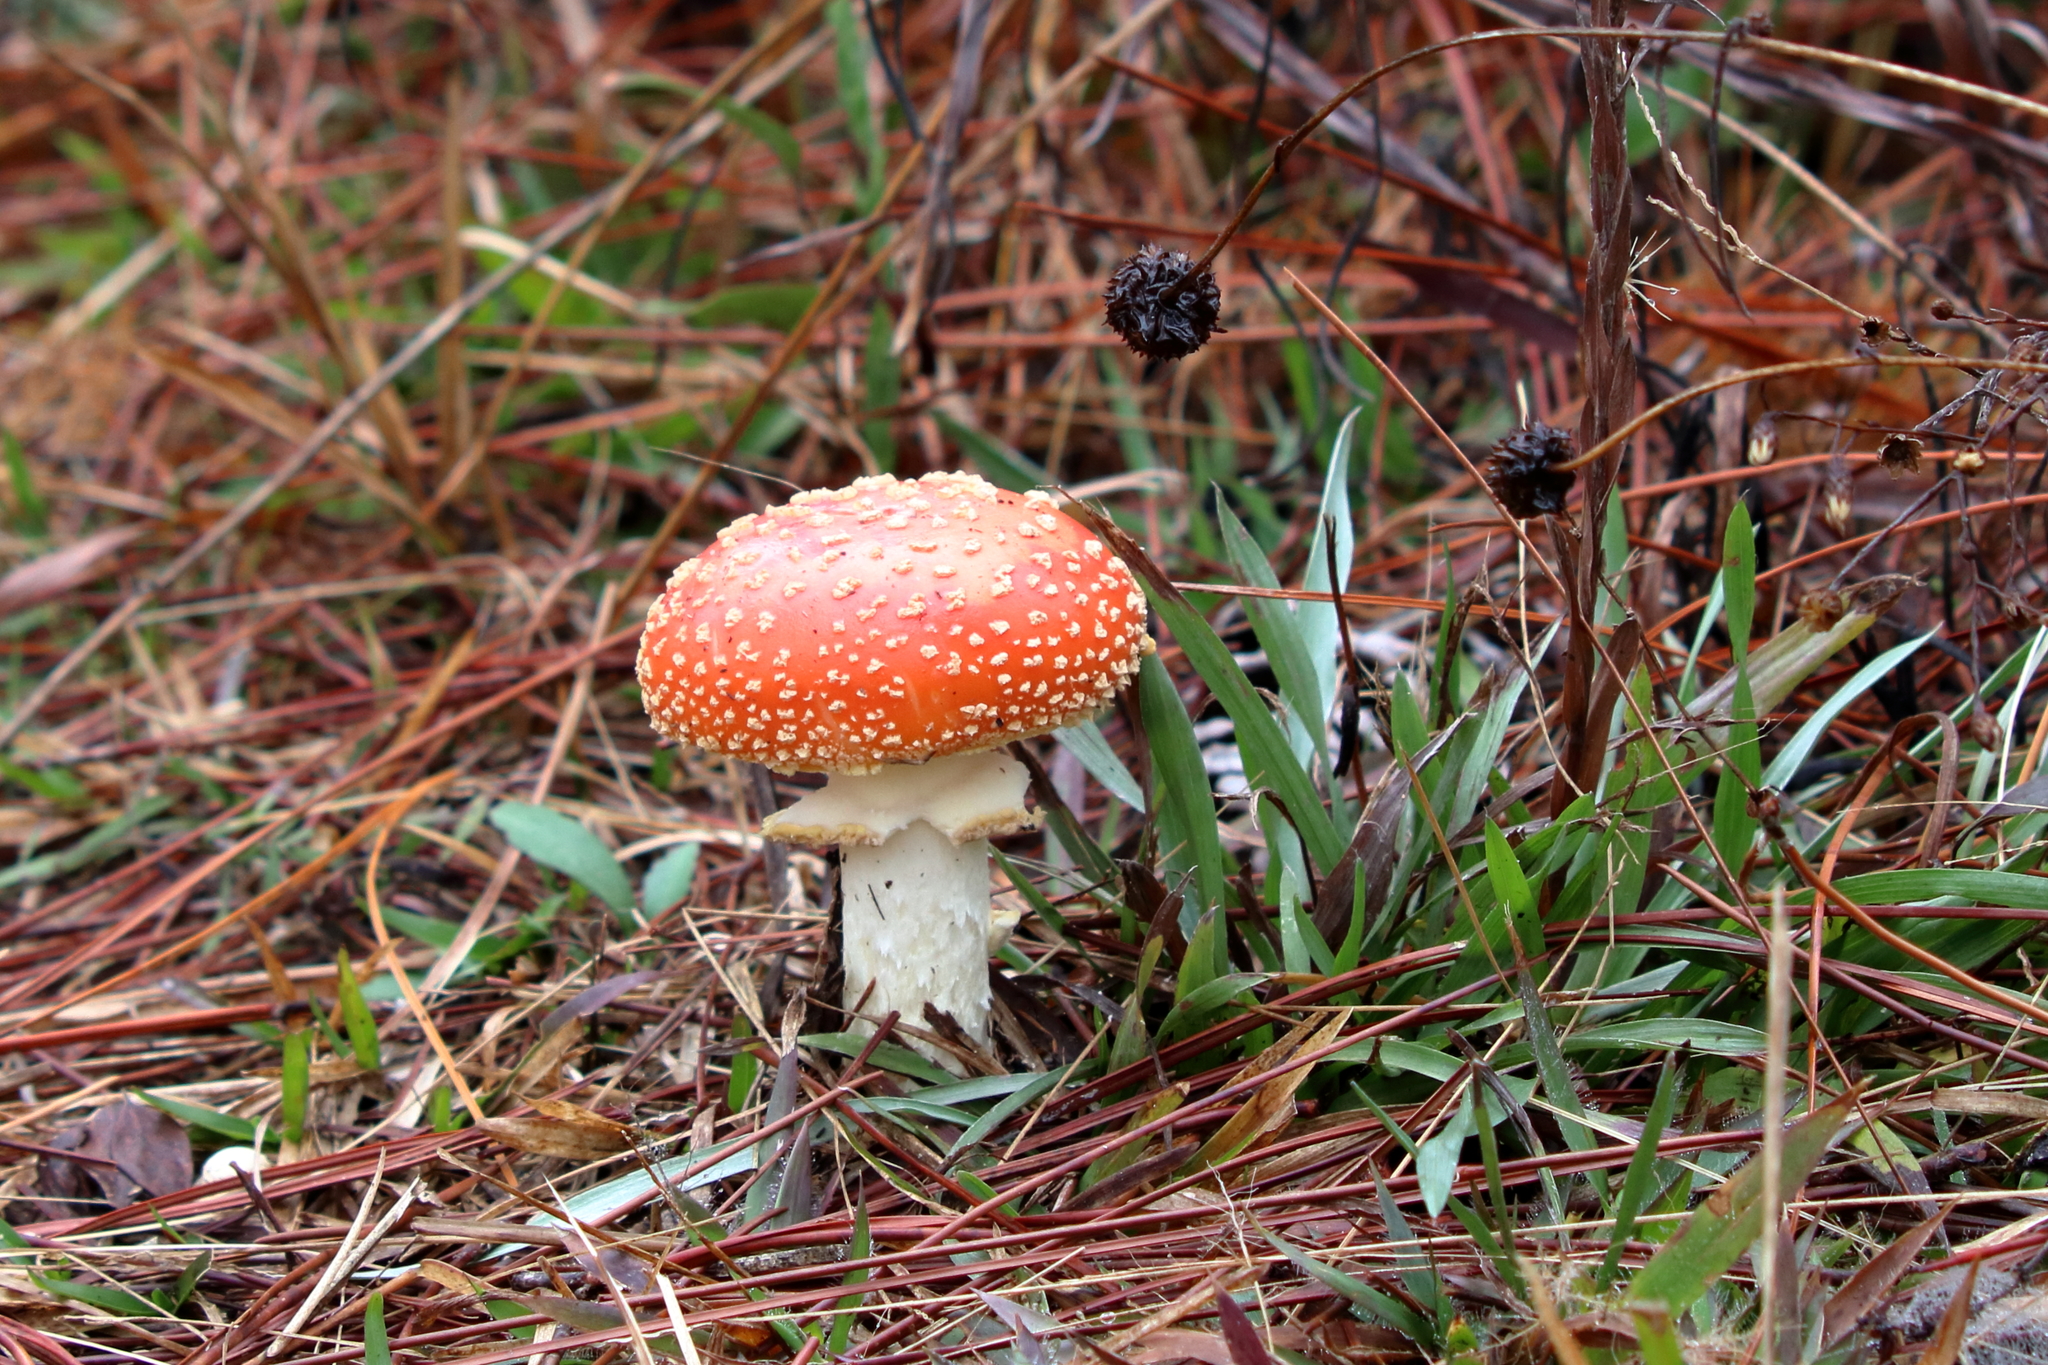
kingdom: Fungi
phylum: Basidiomycota
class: Agaricomycetes
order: Agaricales
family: Amanitaceae
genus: Amanita
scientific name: Amanita persicina
